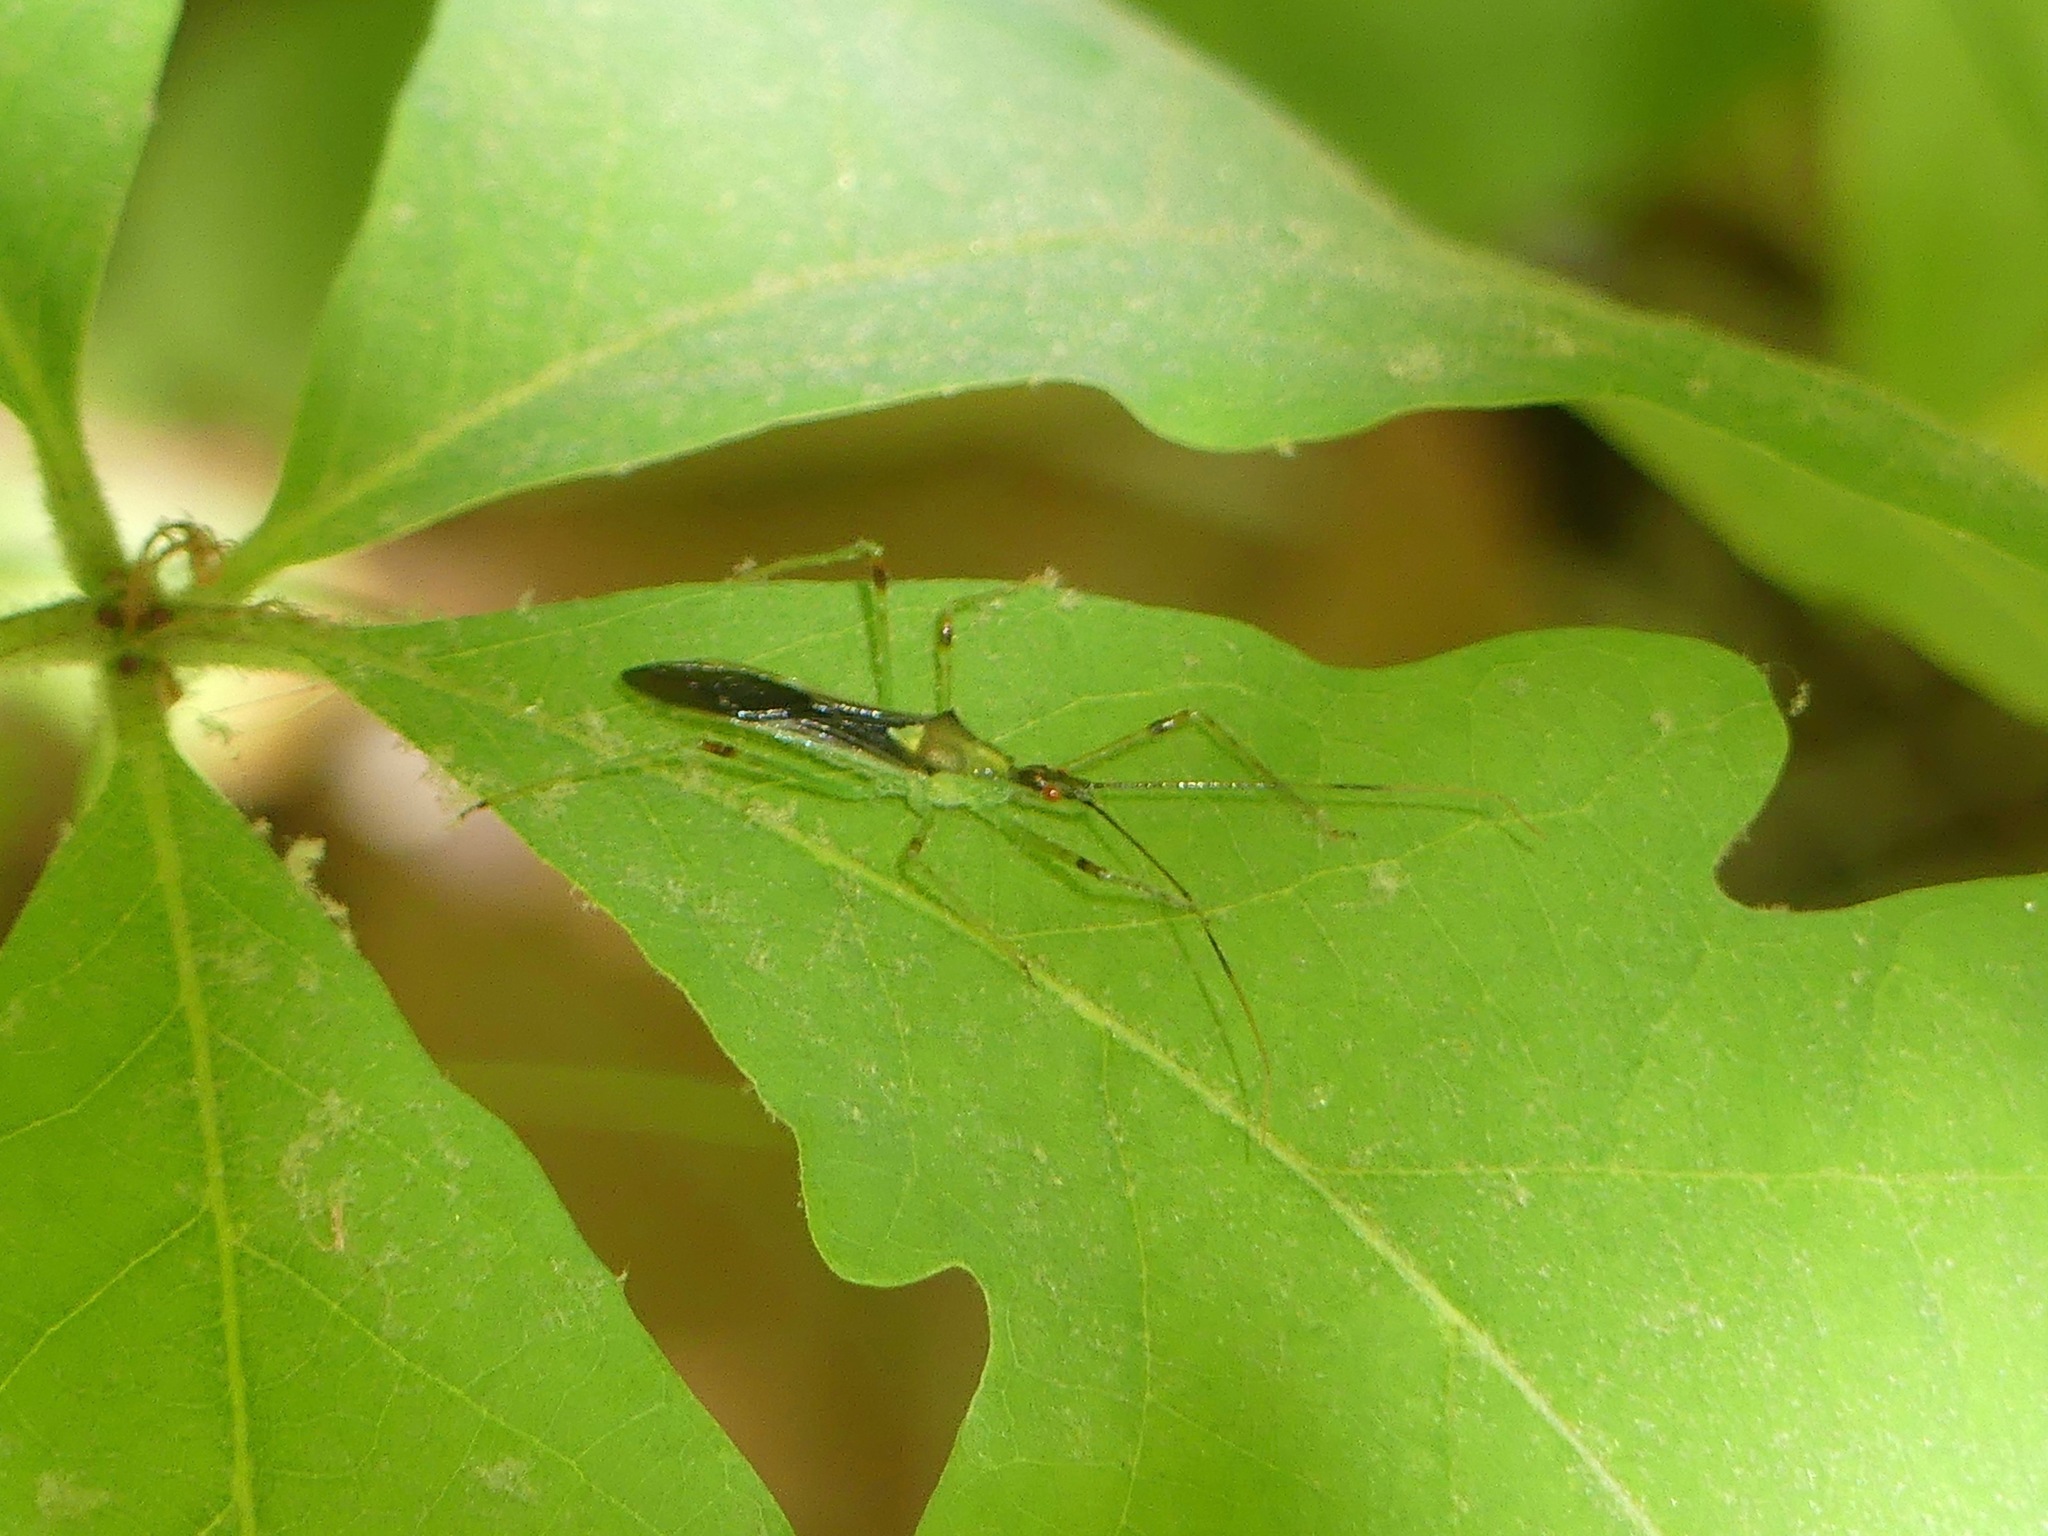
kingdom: Animalia
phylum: Arthropoda
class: Insecta
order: Hemiptera
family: Reduviidae
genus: Zelus
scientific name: Zelus luridus
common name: Pale green assassin bug
